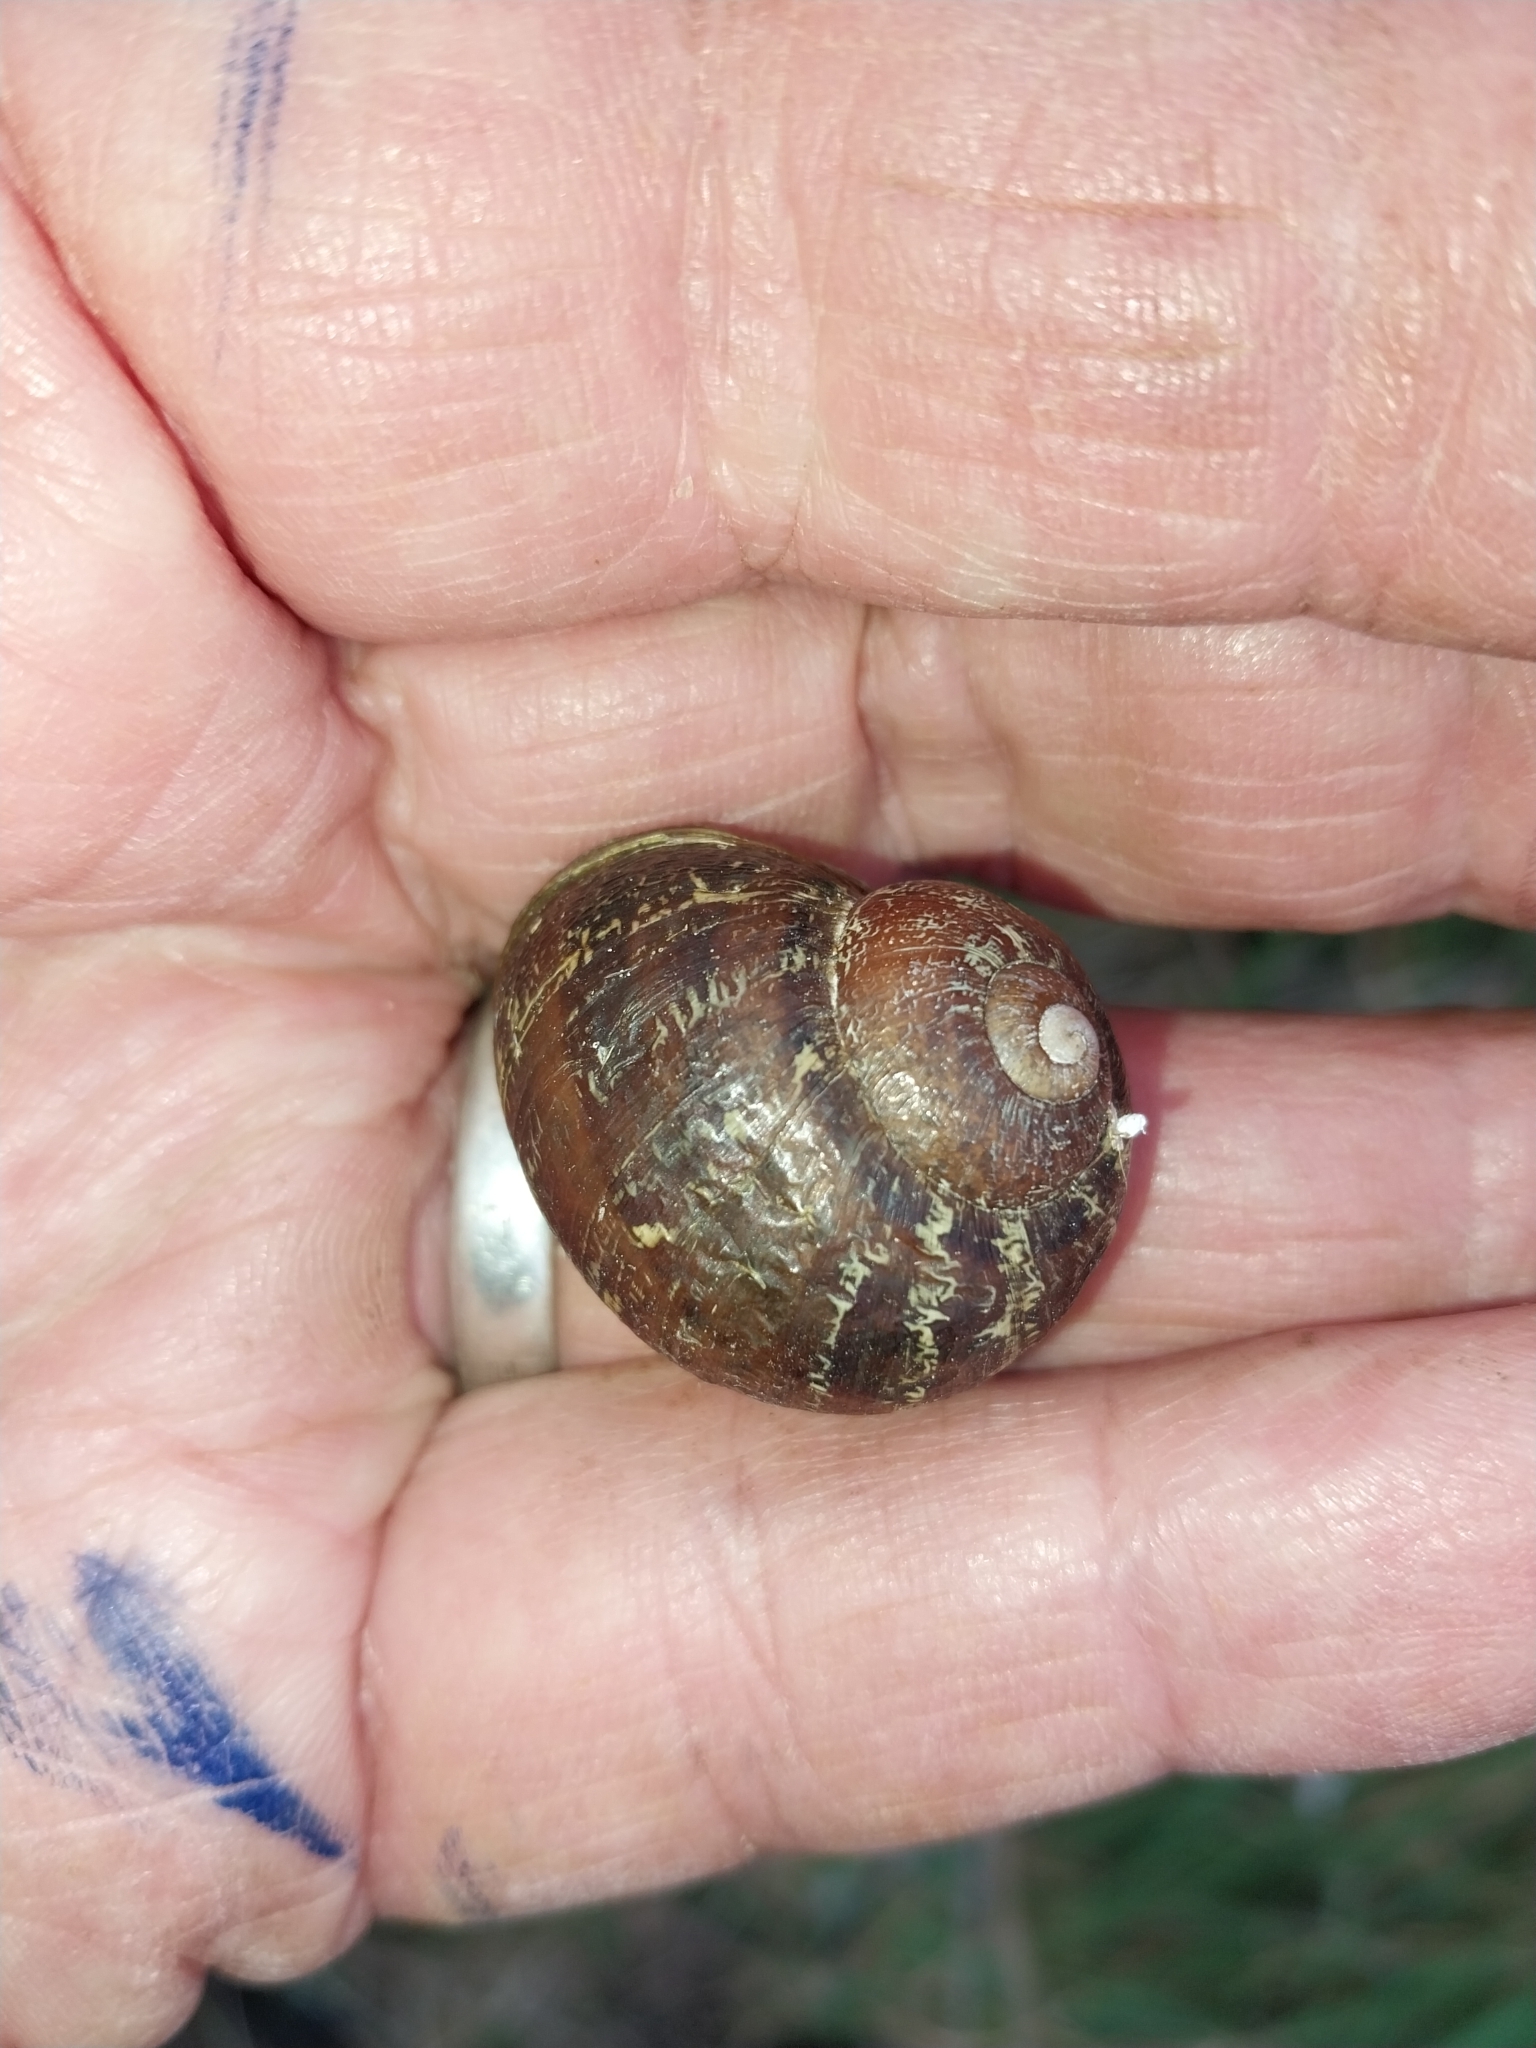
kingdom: Animalia
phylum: Mollusca
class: Gastropoda
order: Stylommatophora
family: Helicidae
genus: Cornu
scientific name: Cornu aspersum
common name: Brown garden snail
